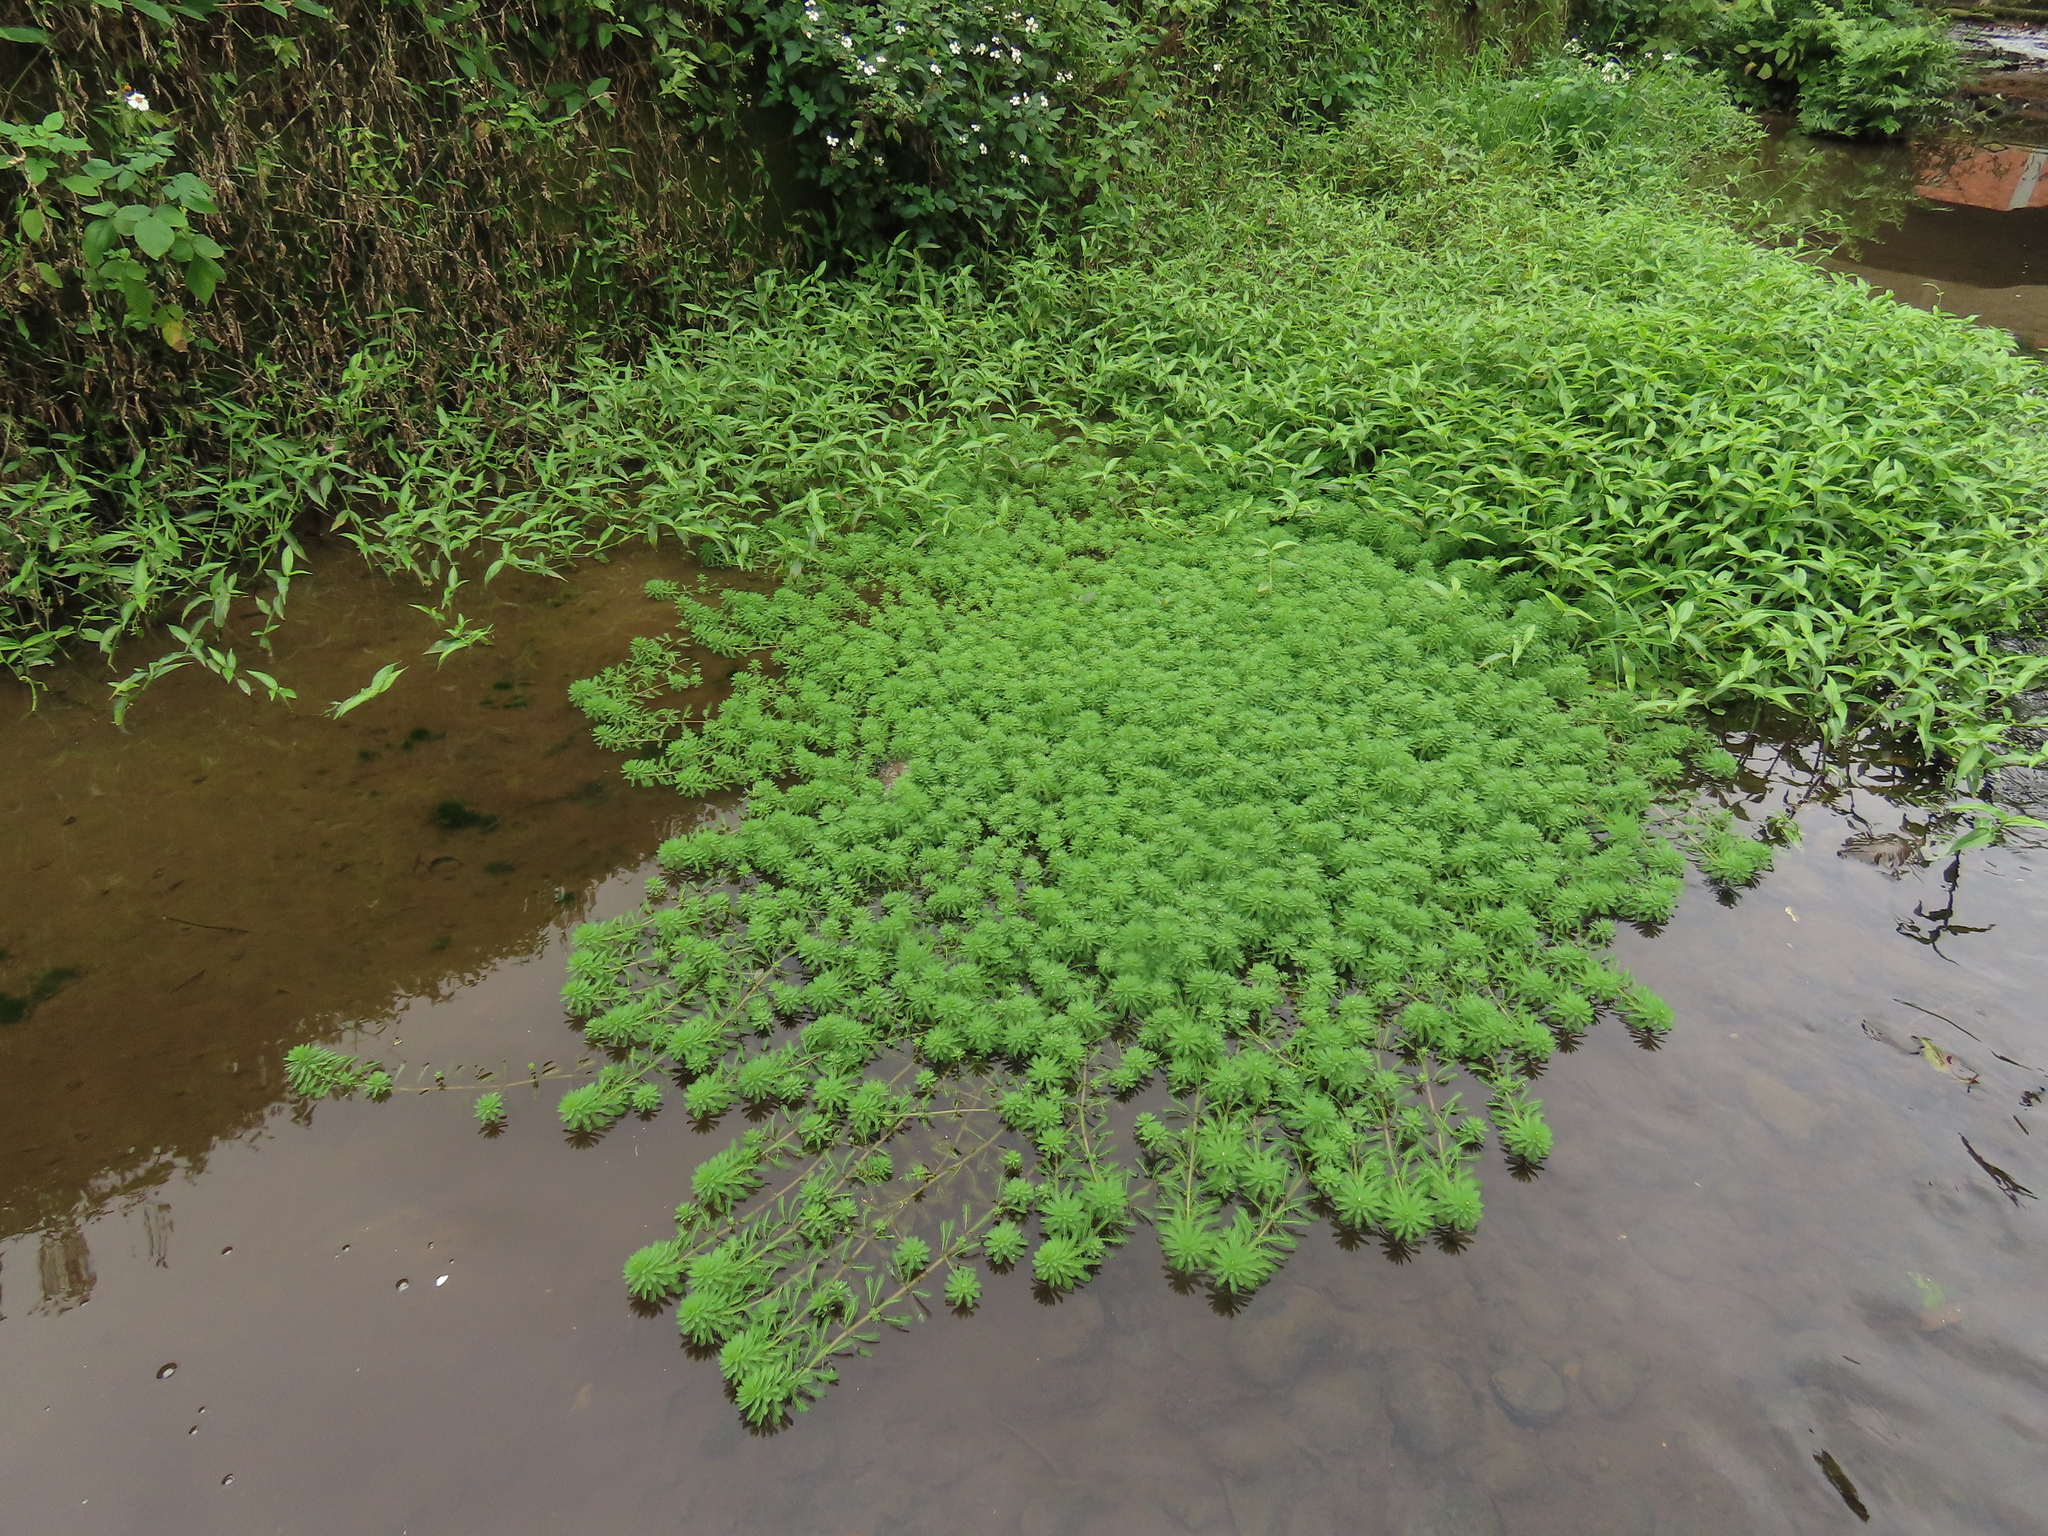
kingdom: Plantae
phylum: Tracheophyta
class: Magnoliopsida
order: Saxifragales
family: Haloragaceae
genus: Myriophyllum
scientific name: Myriophyllum aquaticum
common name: Parrot's feather
